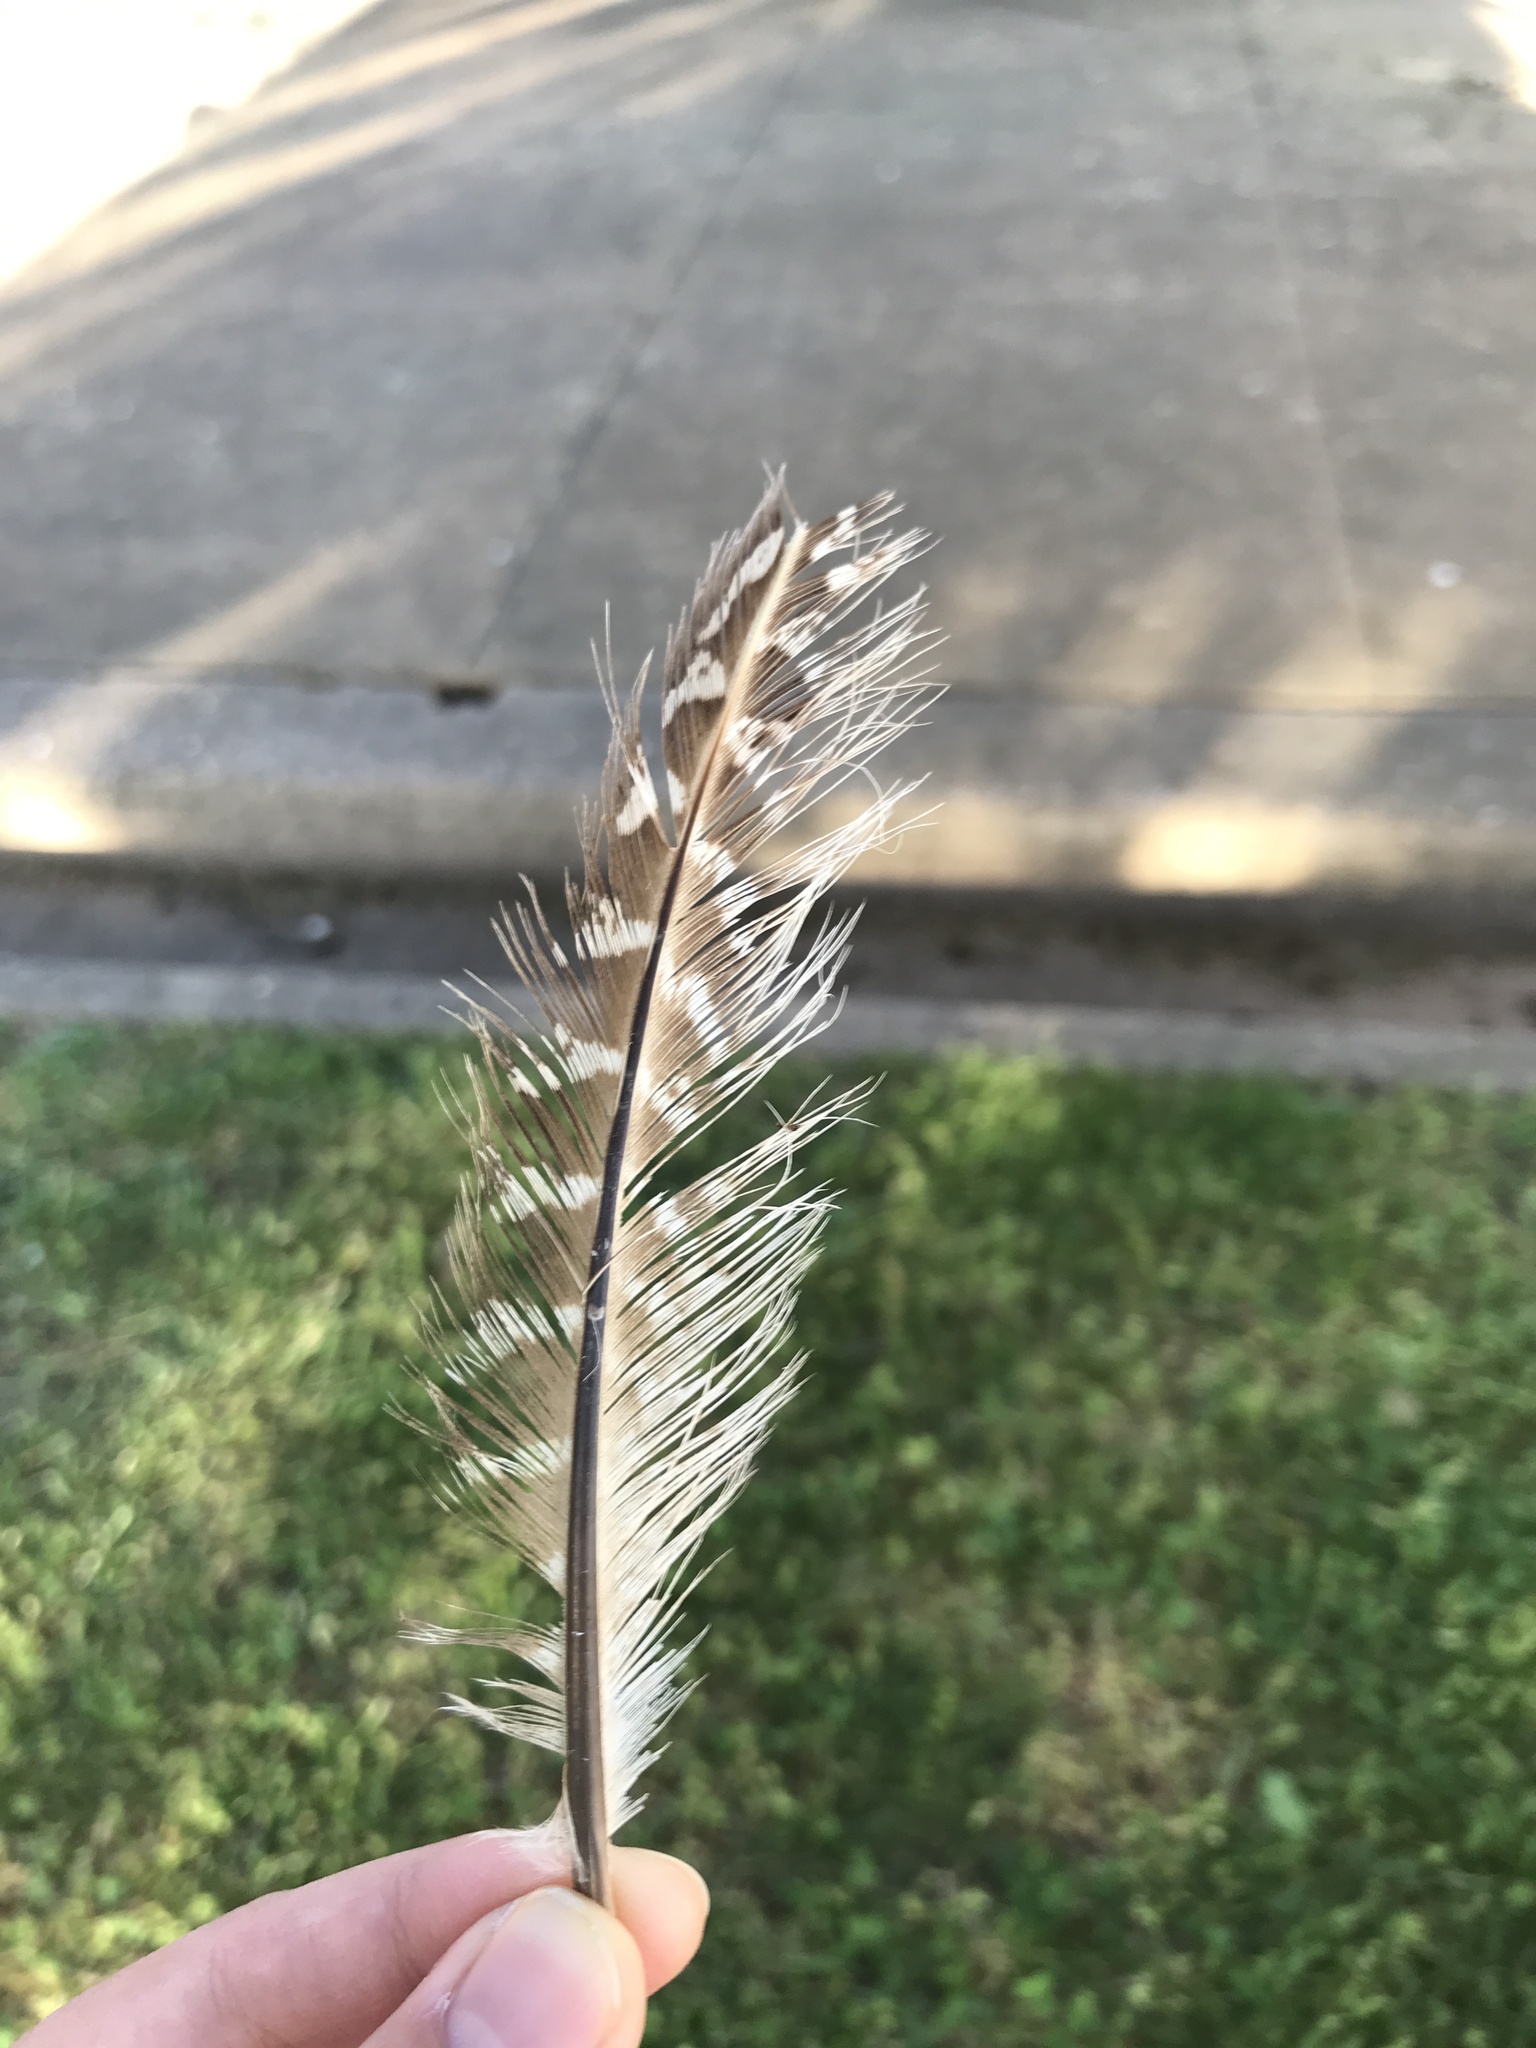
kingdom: Animalia
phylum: Chordata
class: Aves
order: Galliformes
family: Phasianidae
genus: Phasianus
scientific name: Phasianus colchicus
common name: Common pheasant
